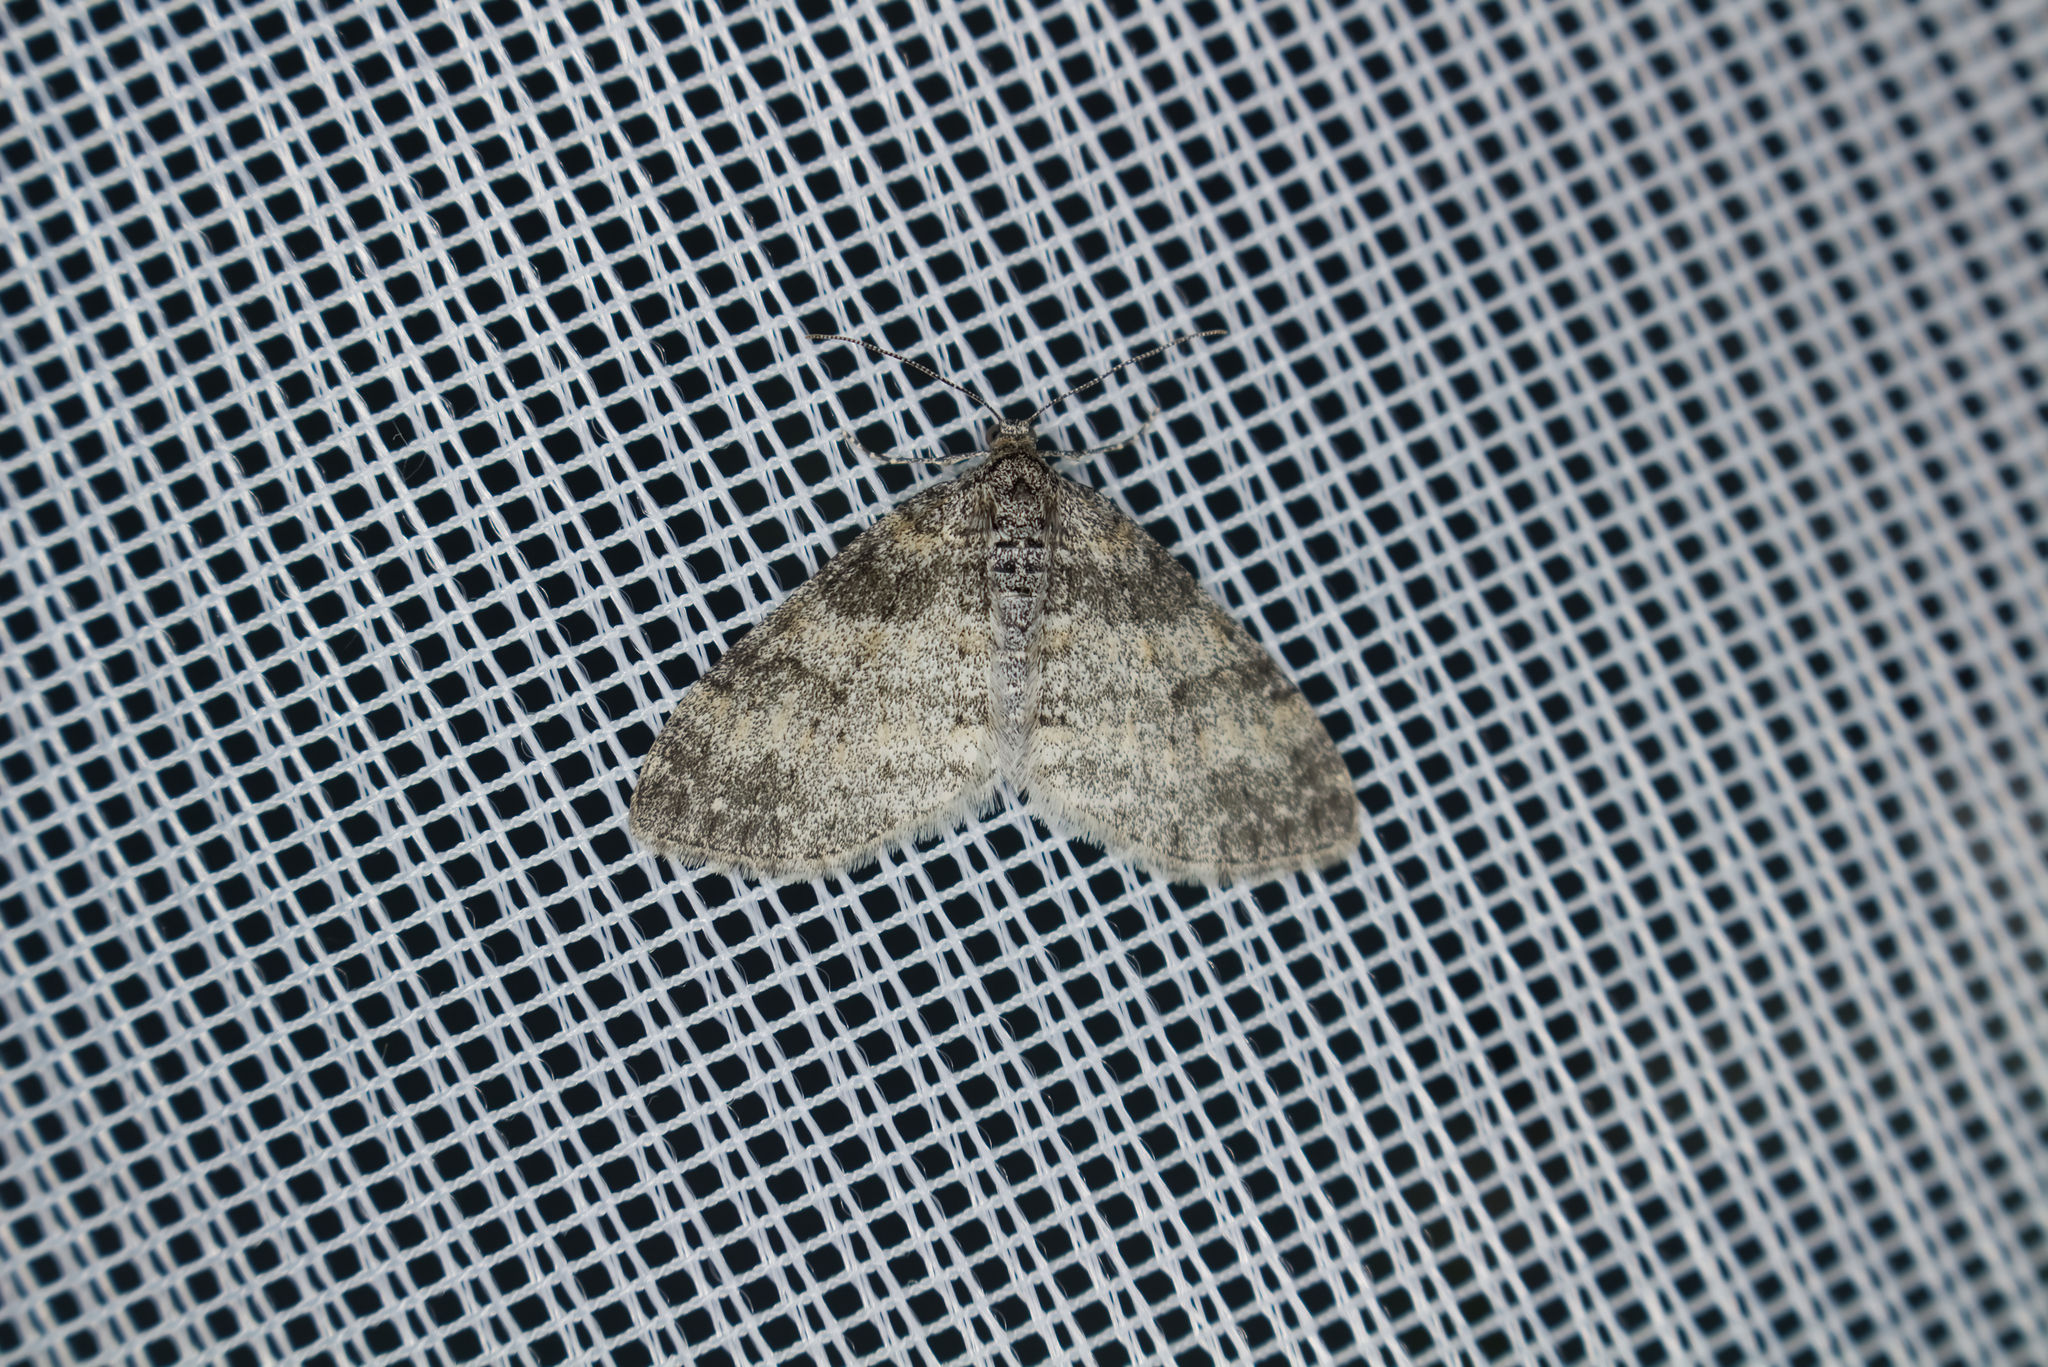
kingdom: Animalia
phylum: Arthropoda
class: Insecta
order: Lepidoptera
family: Geometridae
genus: Lobophora
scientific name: Lobophora halterata
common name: Seraphim
